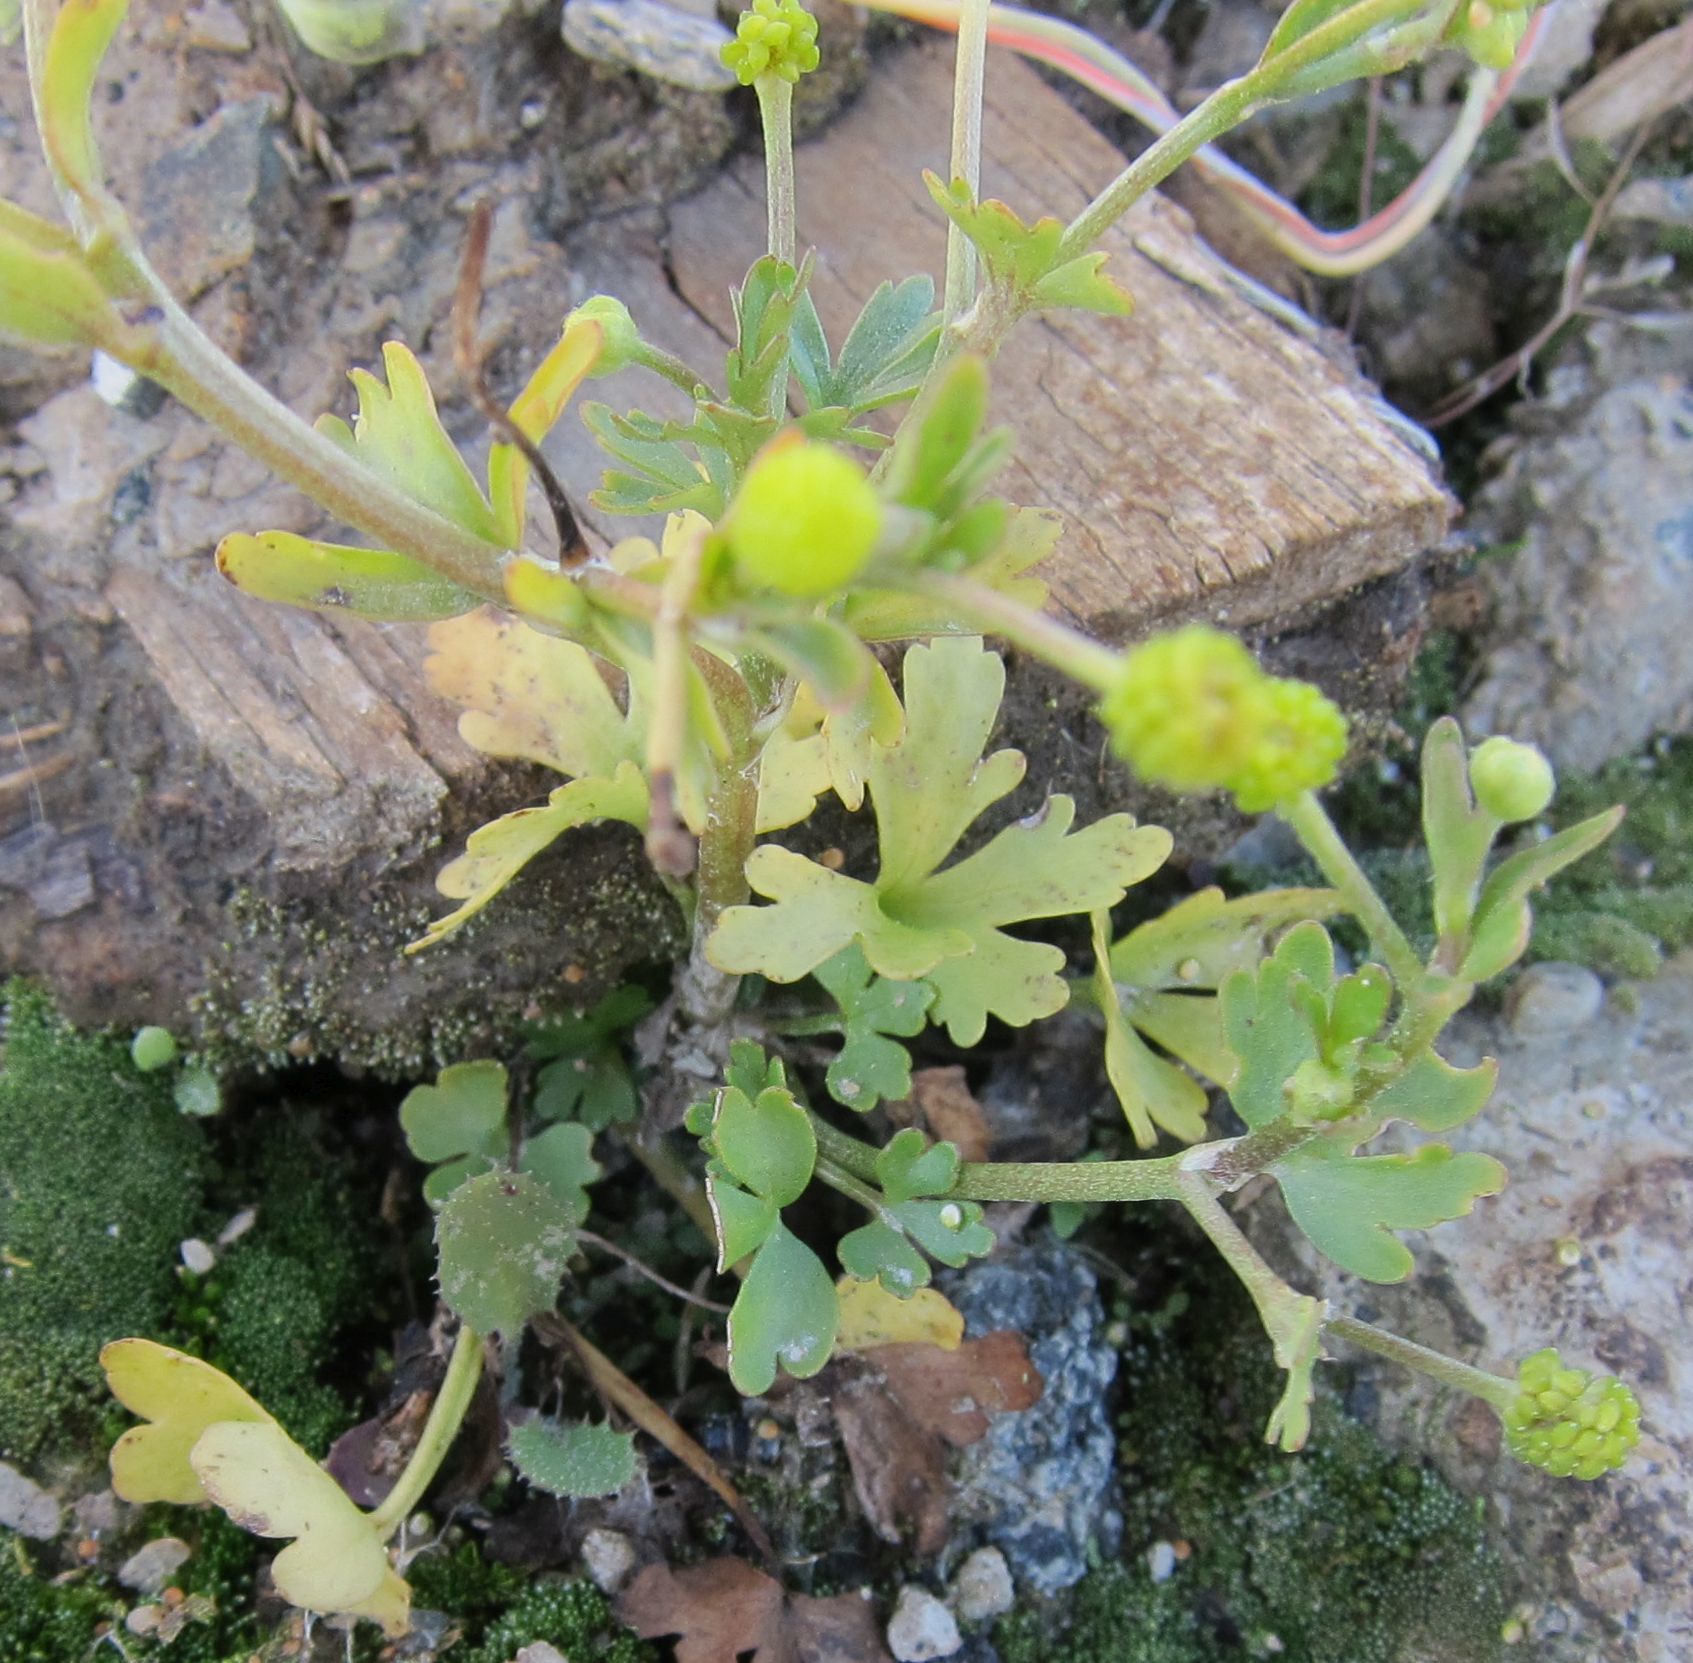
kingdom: Plantae
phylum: Tracheophyta
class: Magnoliopsida
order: Ranunculales
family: Ranunculaceae
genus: Ranunculus
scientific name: Ranunculus sceleratus
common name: Celery-leaved buttercup
